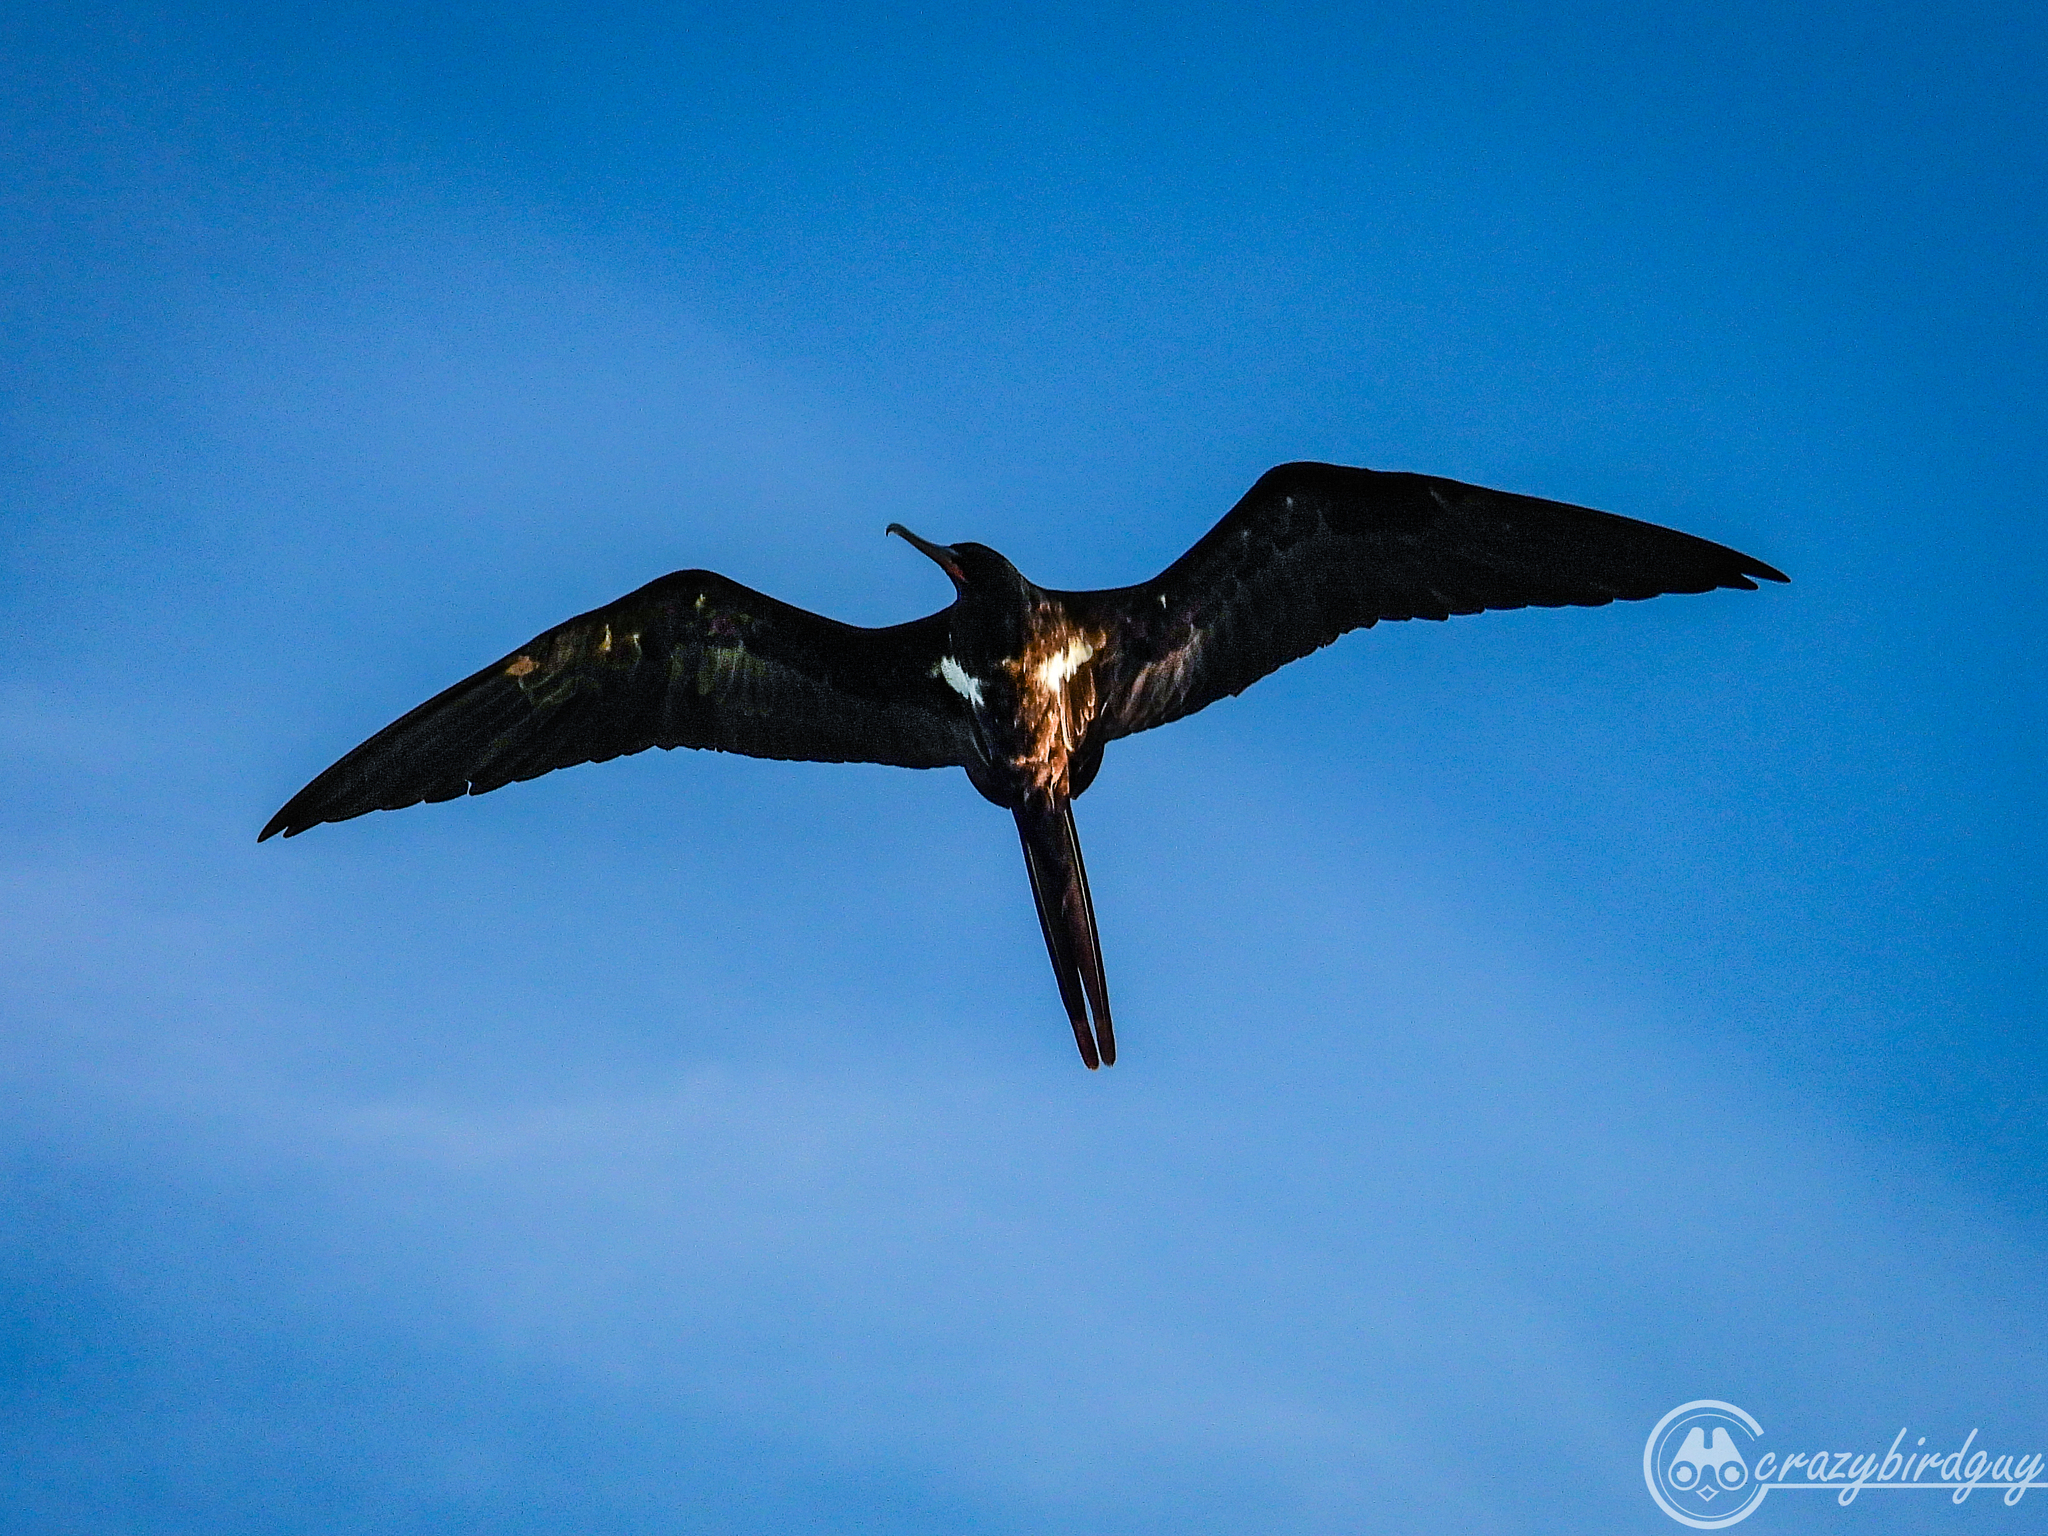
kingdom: Animalia
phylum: Chordata
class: Aves
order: Suliformes
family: Fregatidae
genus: Fregata
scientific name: Fregata ariel
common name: Lesser frigatebird
